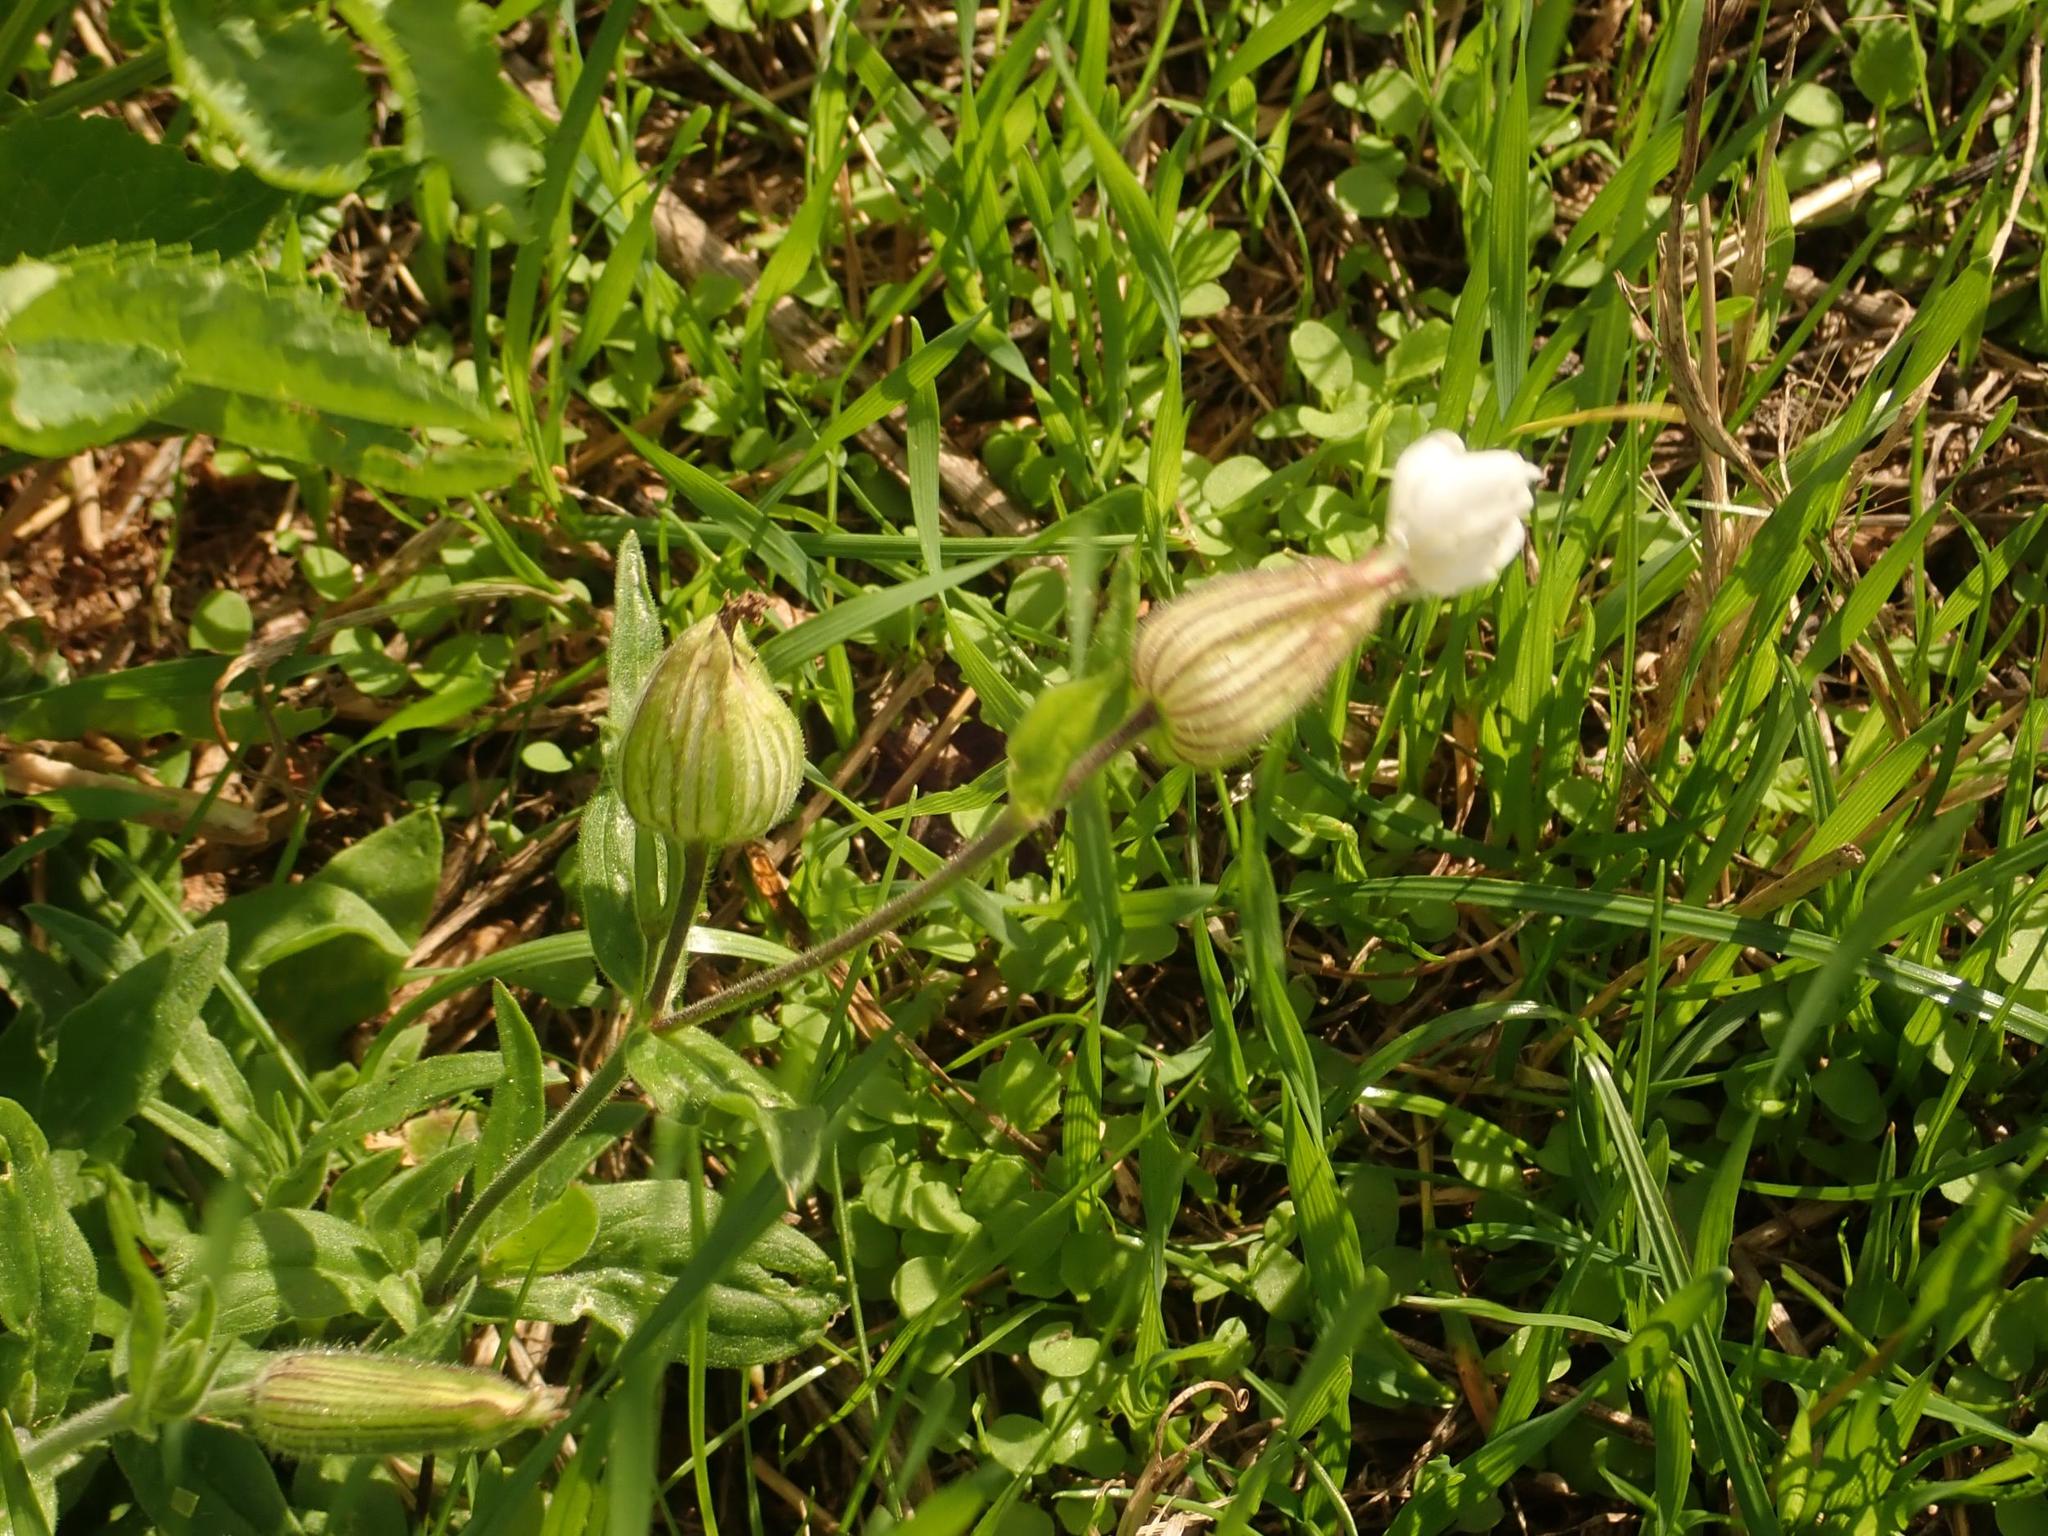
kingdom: Plantae
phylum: Tracheophyta
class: Magnoliopsida
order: Caryophyllales
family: Caryophyllaceae
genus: Silene
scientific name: Silene latifolia
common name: White campion
